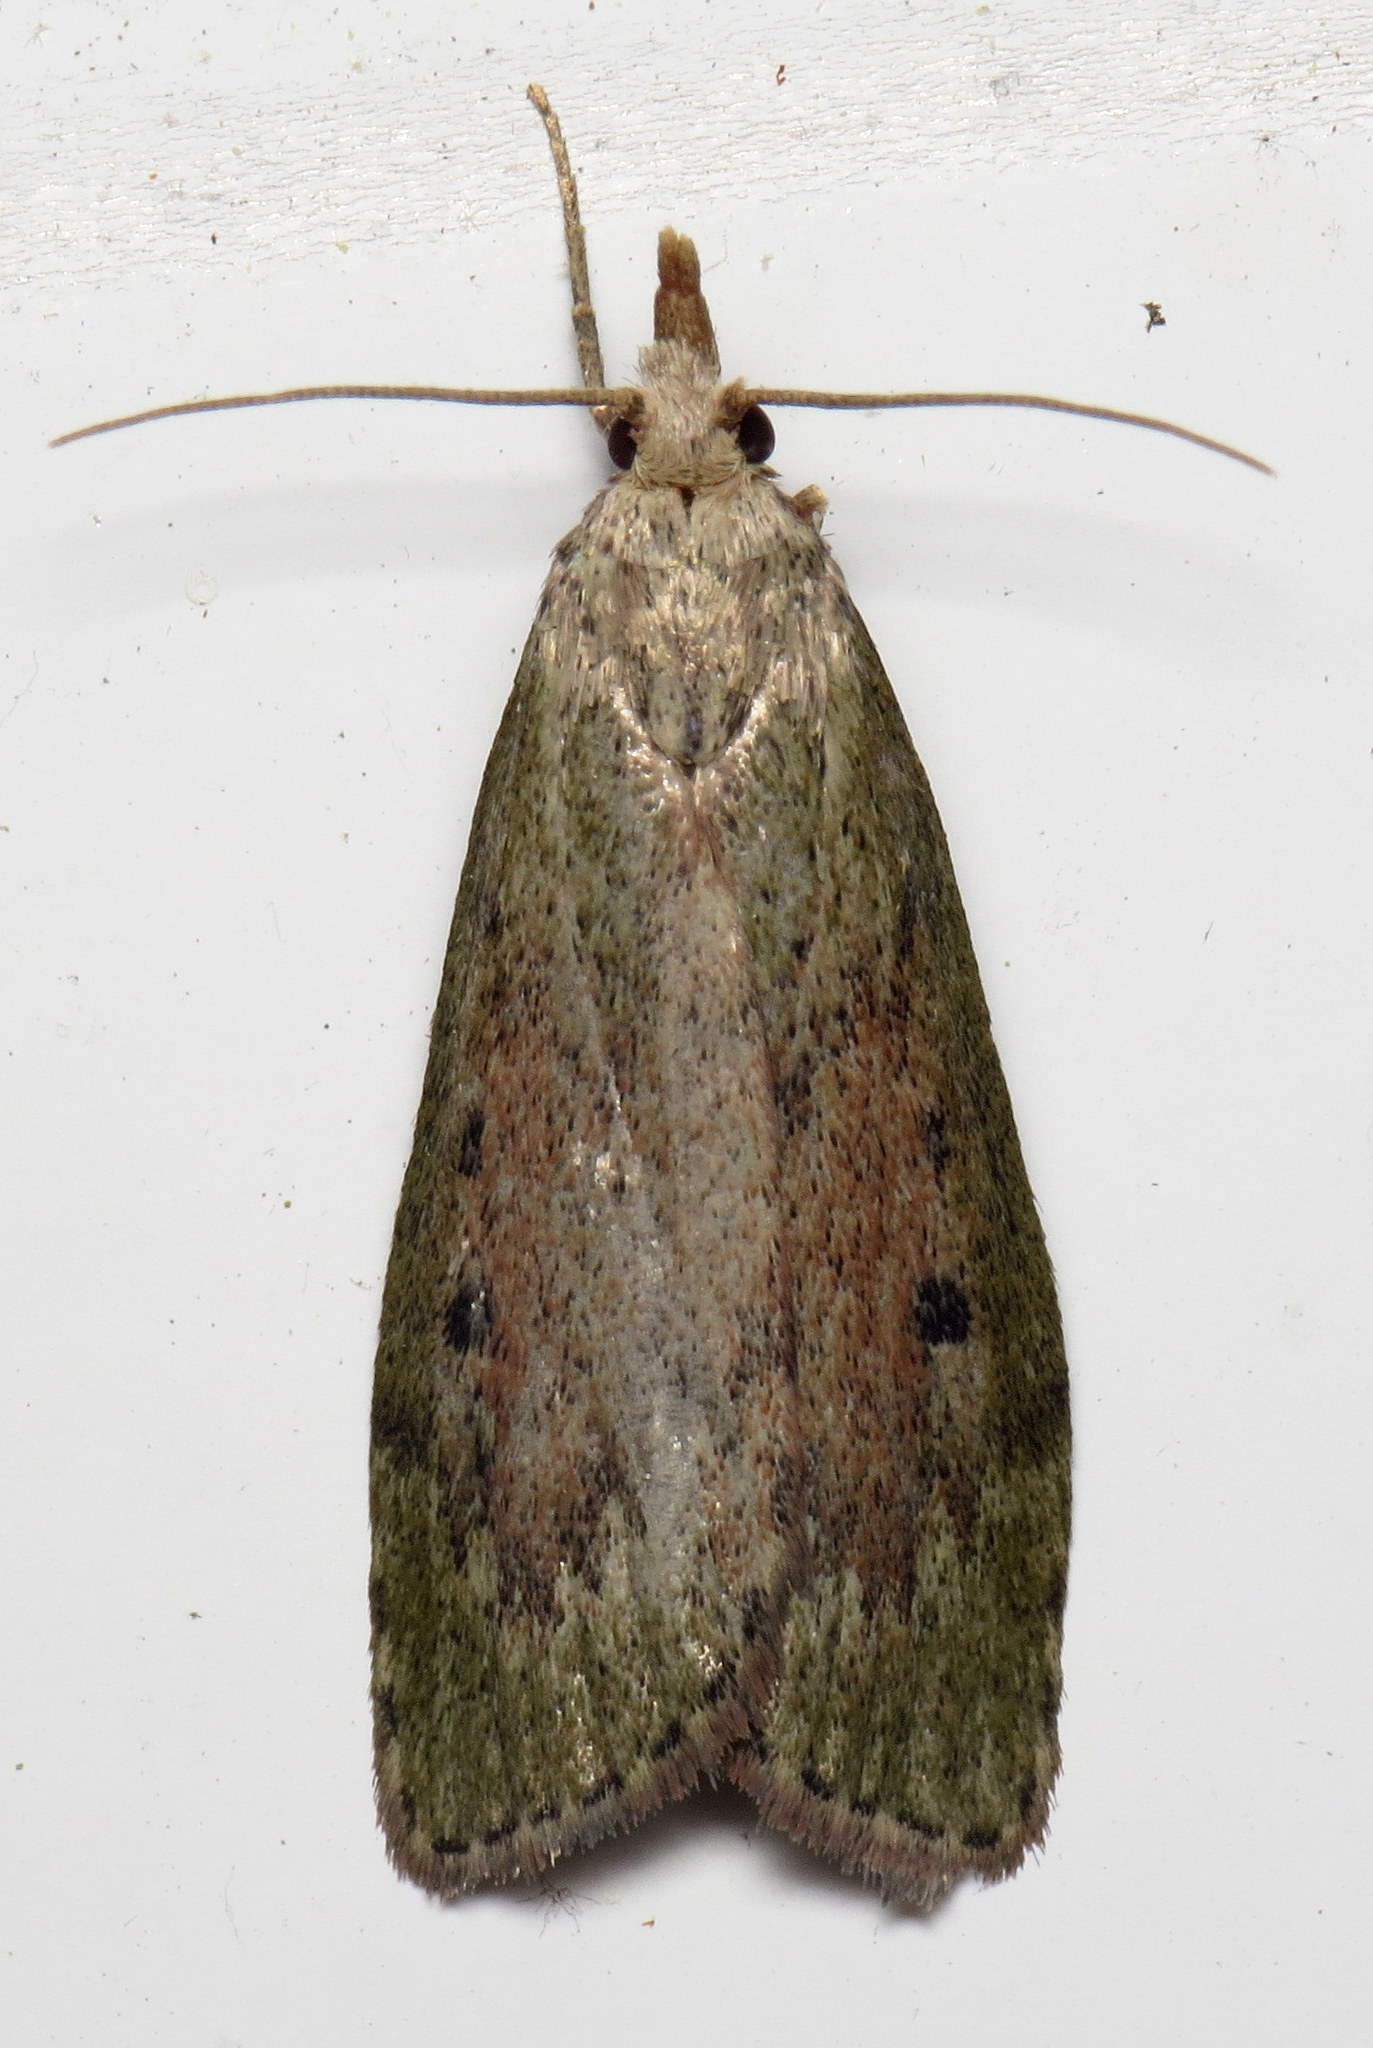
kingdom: Animalia
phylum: Arthropoda
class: Insecta
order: Lepidoptera
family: Pyralidae
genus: Aphomia
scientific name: Aphomia sociella
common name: Bee moth
